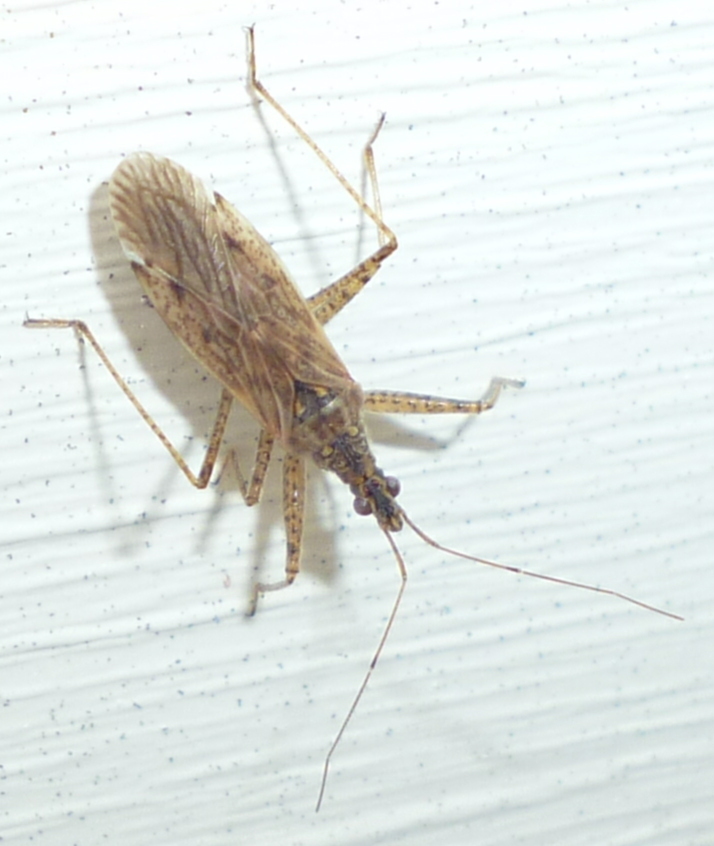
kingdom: Animalia
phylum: Arthropoda
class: Insecta
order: Hemiptera
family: Nabidae
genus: Nabis
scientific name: Nabis roseipennis
